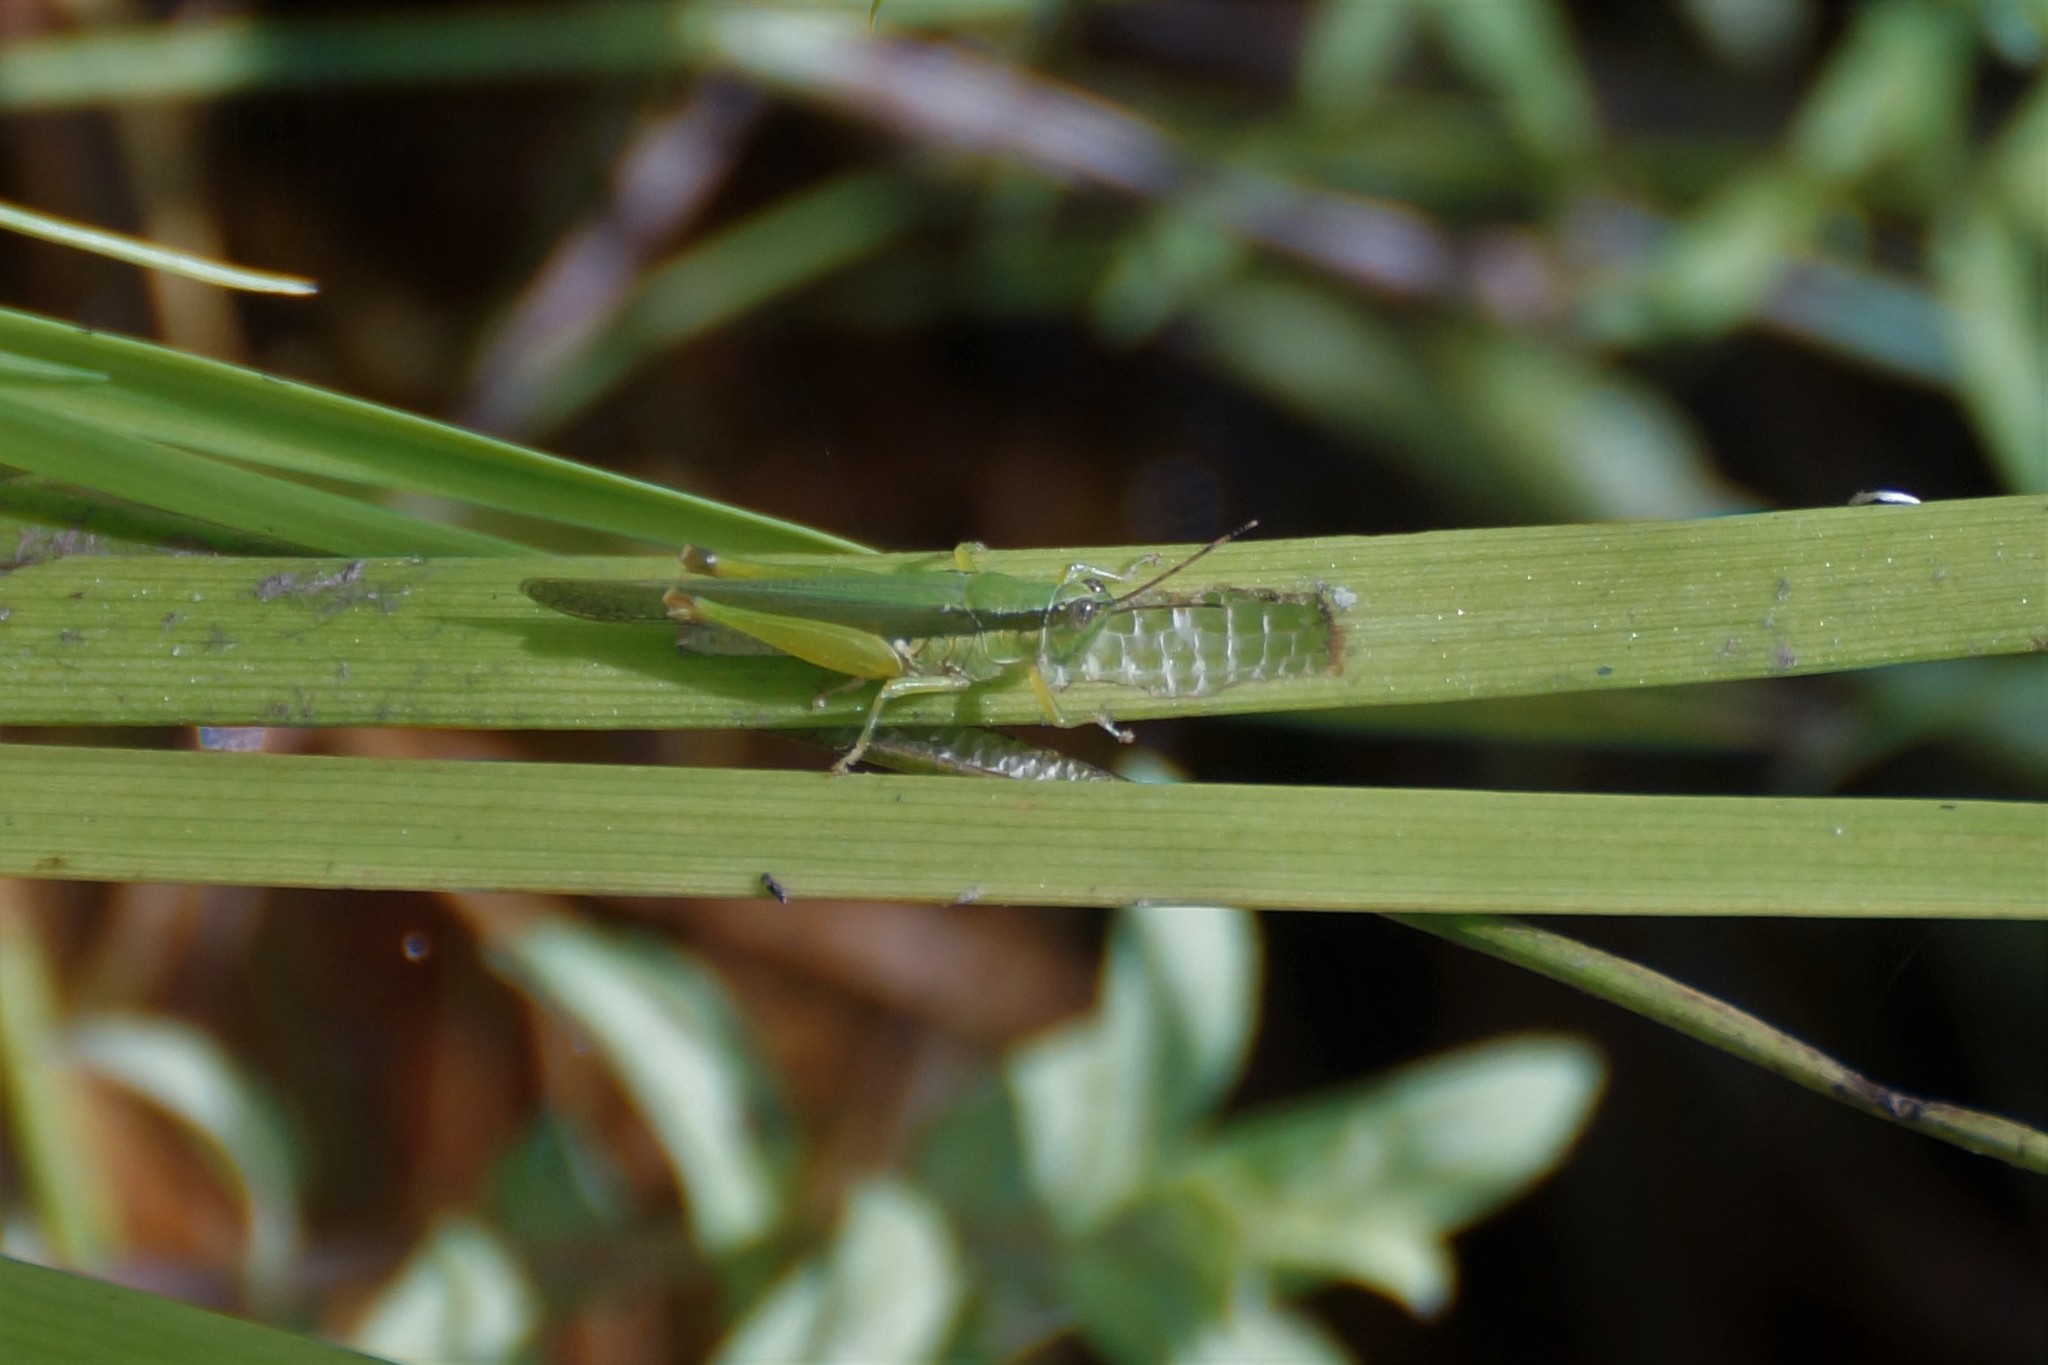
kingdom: Animalia
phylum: Arthropoda
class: Insecta
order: Orthoptera
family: Acrididae
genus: Gesonula
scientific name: Gesonula mundata
